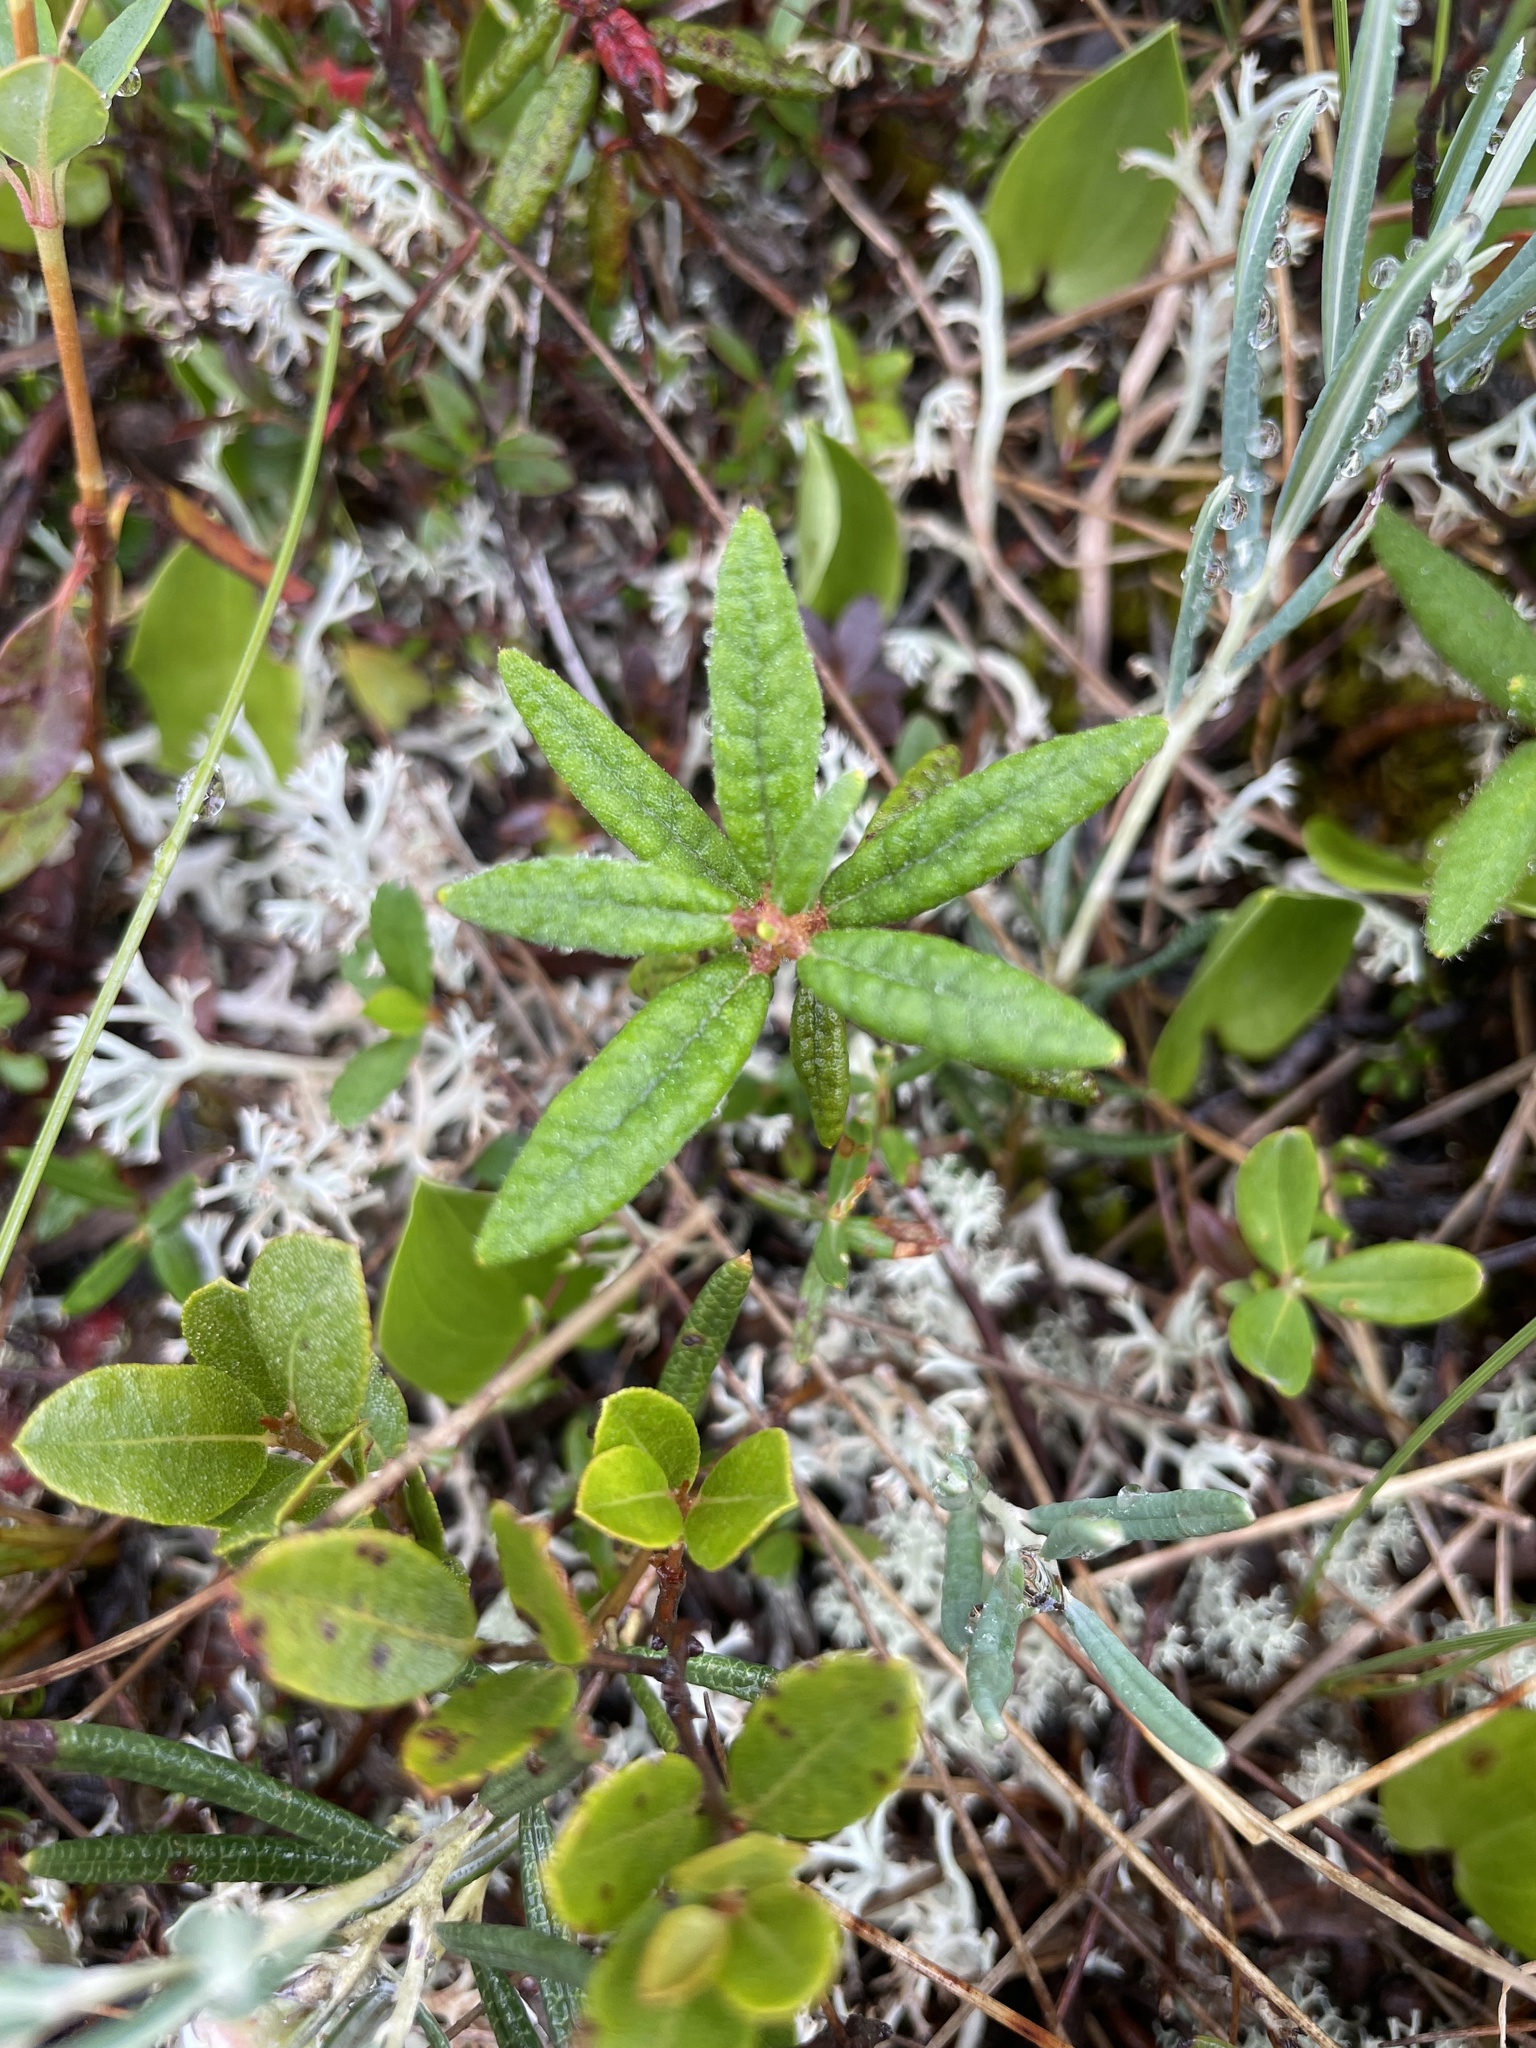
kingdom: Plantae
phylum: Tracheophyta
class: Magnoliopsida
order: Ericales
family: Ericaceae
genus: Rhododendron
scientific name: Rhododendron groenlandicum
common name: Bog labrador tea
